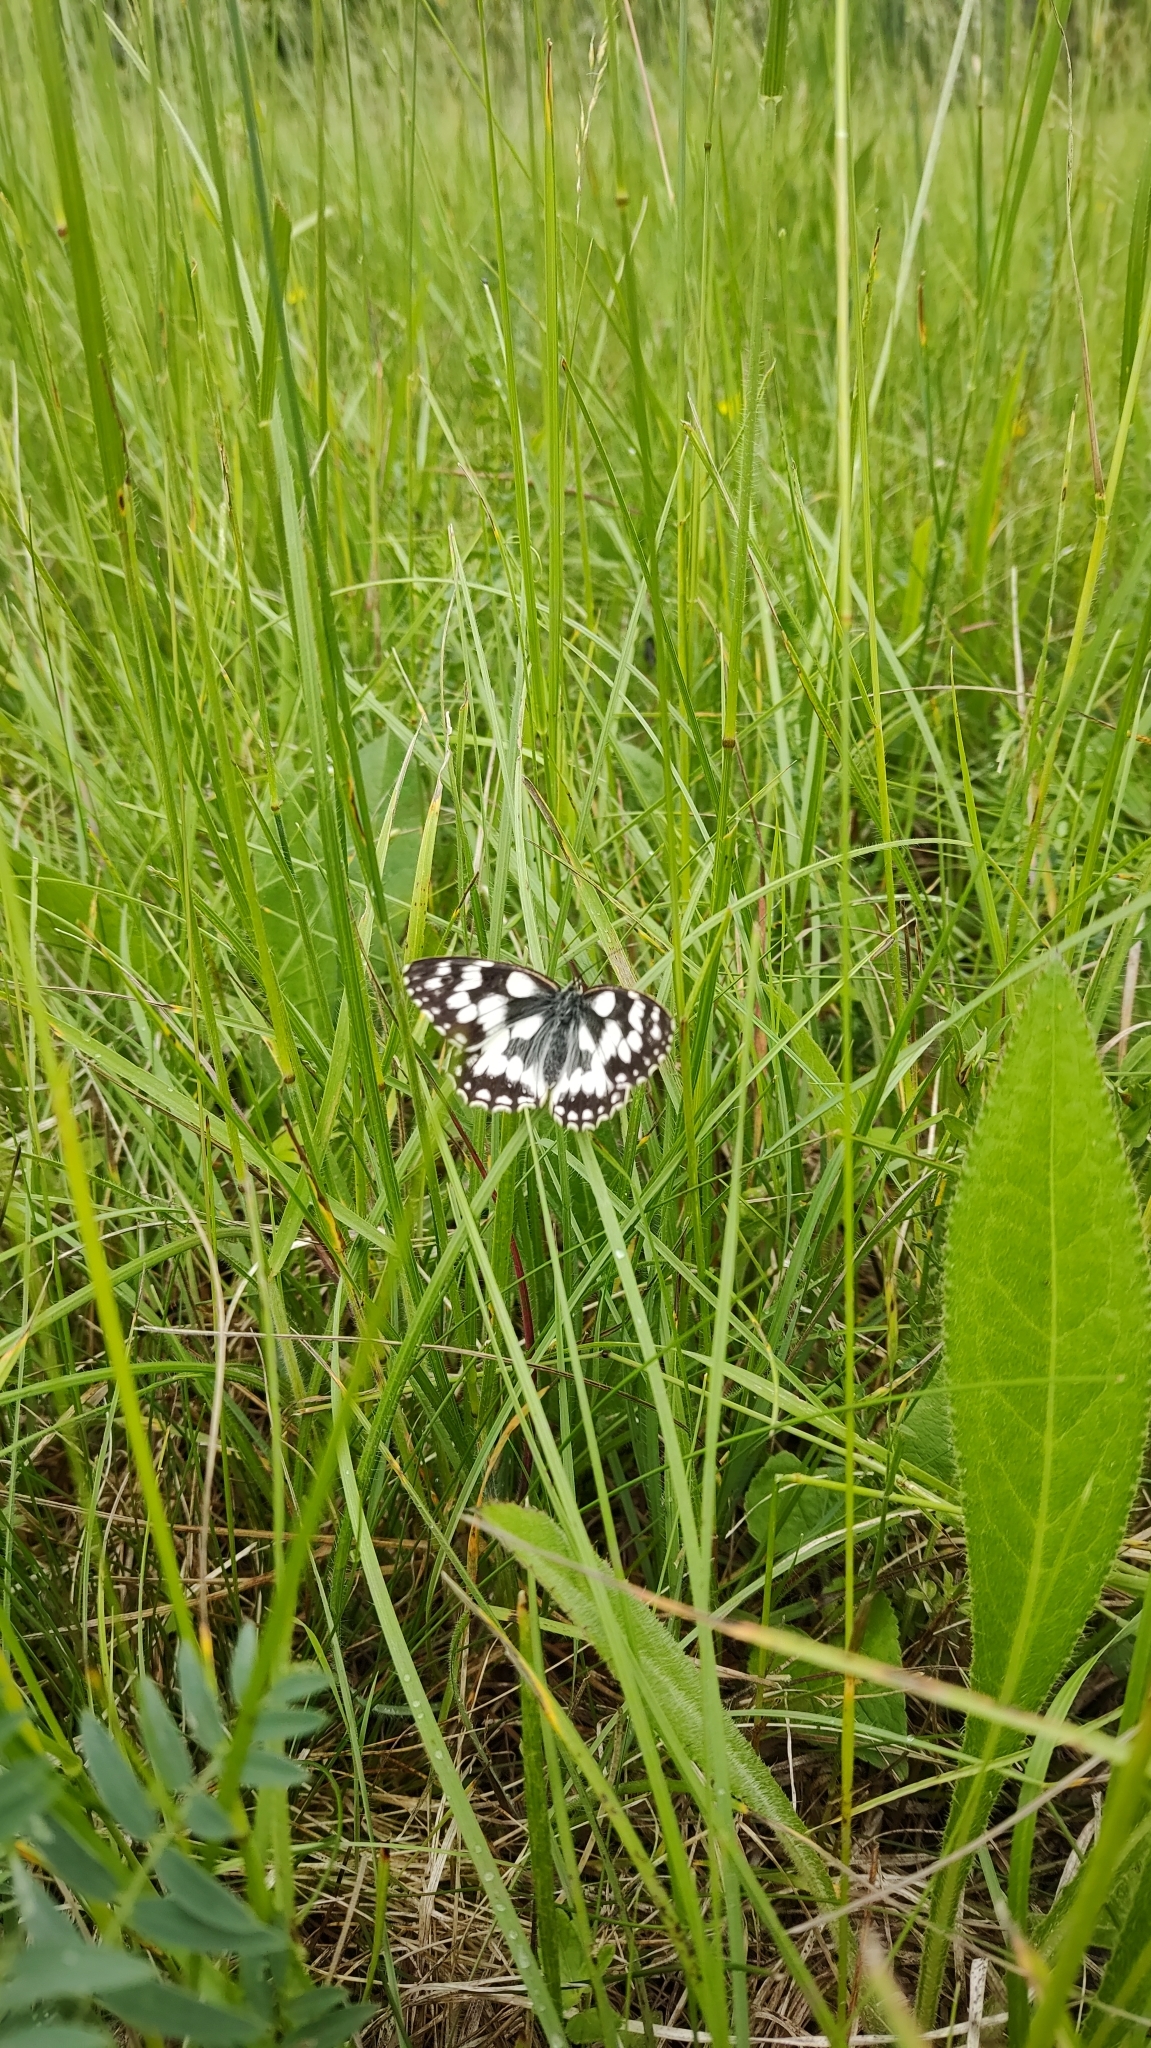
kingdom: Animalia
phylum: Arthropoda
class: Insecta
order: Lepidoptera
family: Nymphalidae
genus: Melanargia
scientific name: Melanargia galathea
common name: Marbled white
